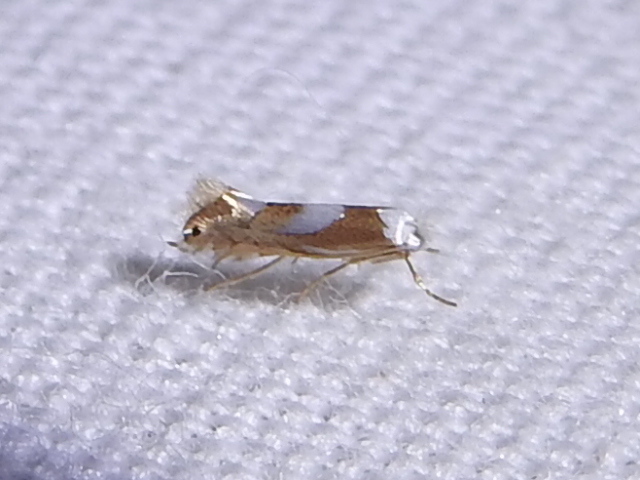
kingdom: Animalia
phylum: Arthropoda
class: Insecta
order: Lepidoptera
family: Gracillariidae
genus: Phyllonorycter
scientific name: Phyllonorycter fitchella
